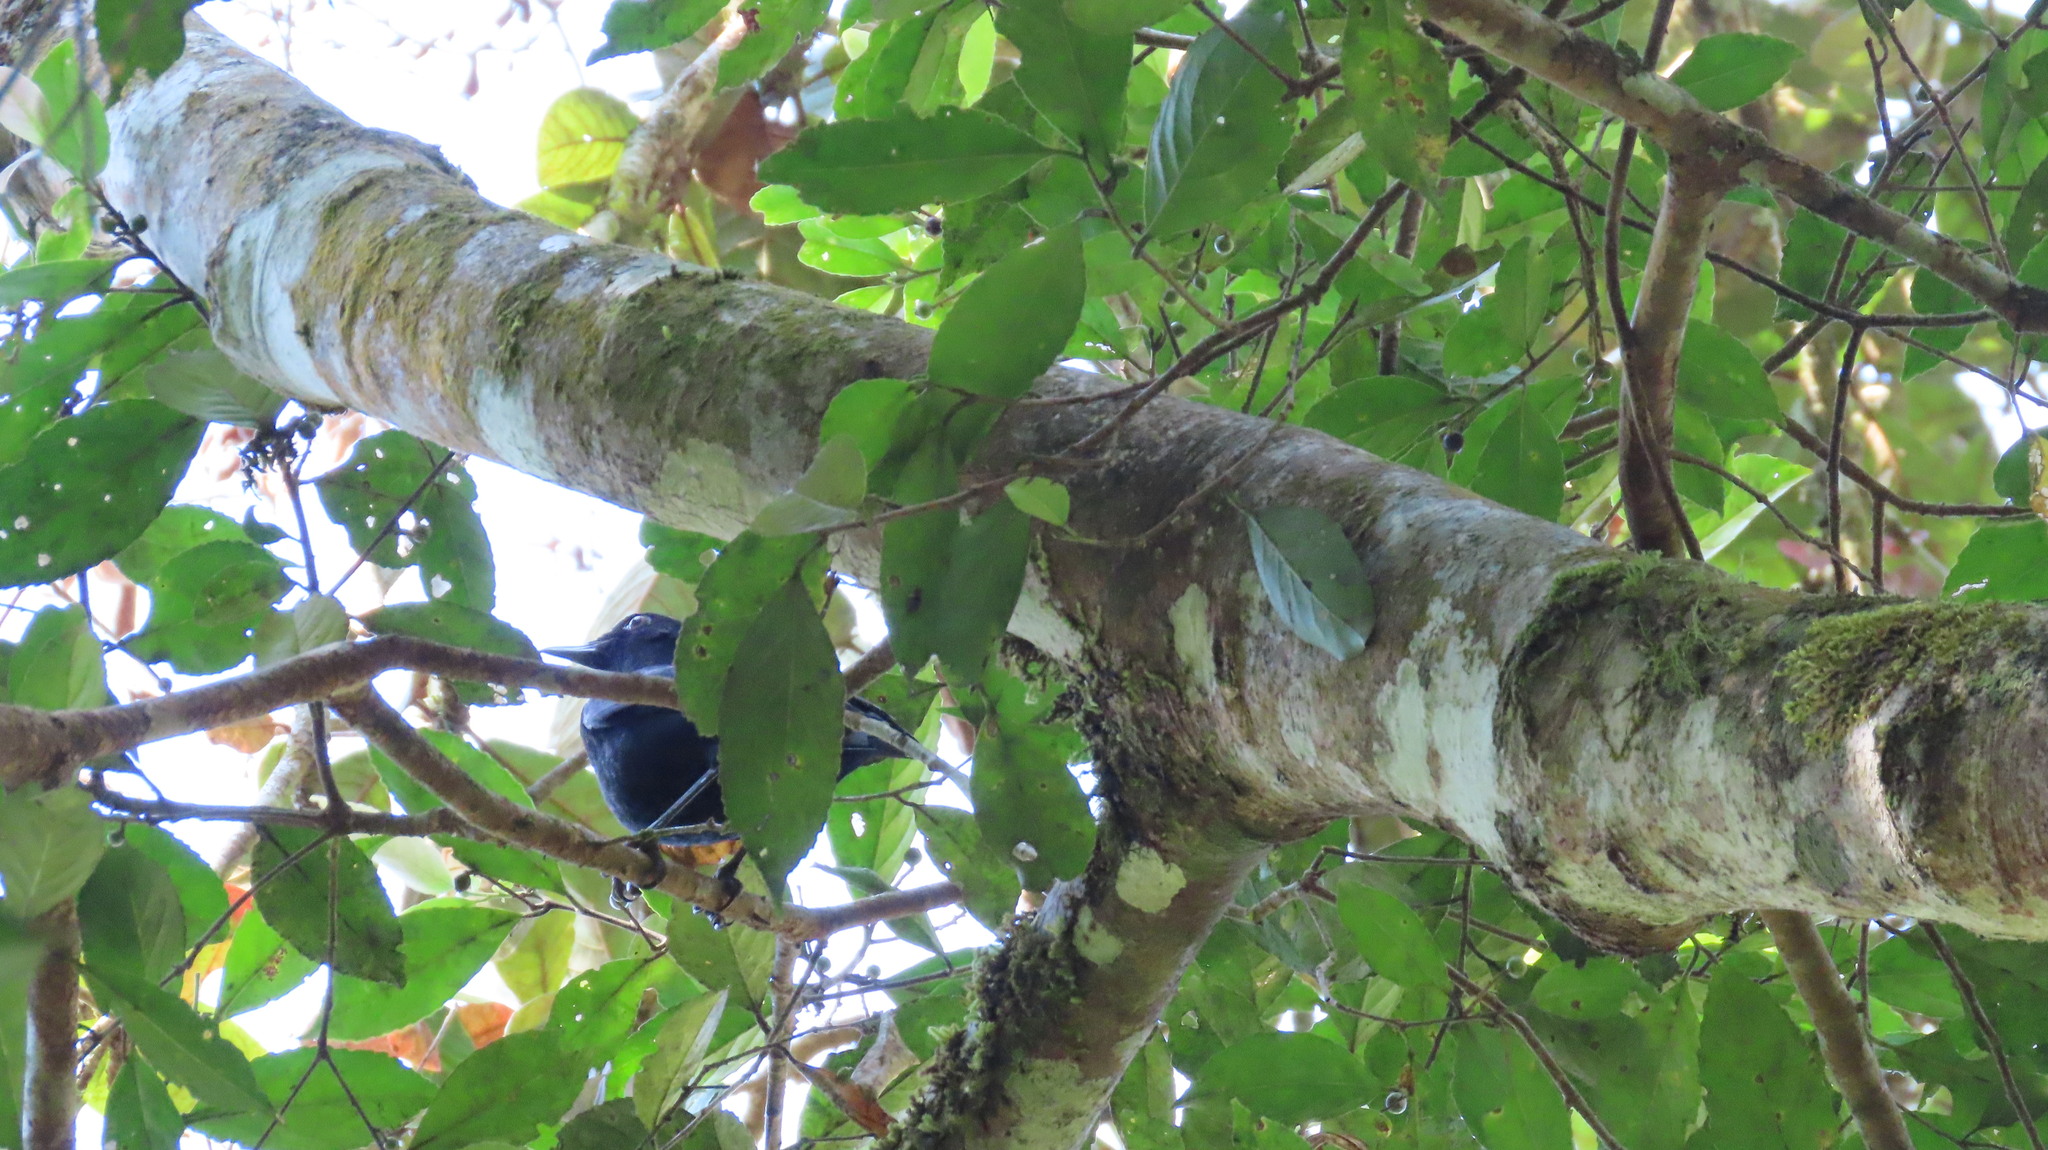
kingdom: Animalia
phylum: Chordata
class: Aves
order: Passeriformes
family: Muscicapidae
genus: Myophonus
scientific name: Myophonus horsfieldii
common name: Malabar whistling-thrush
